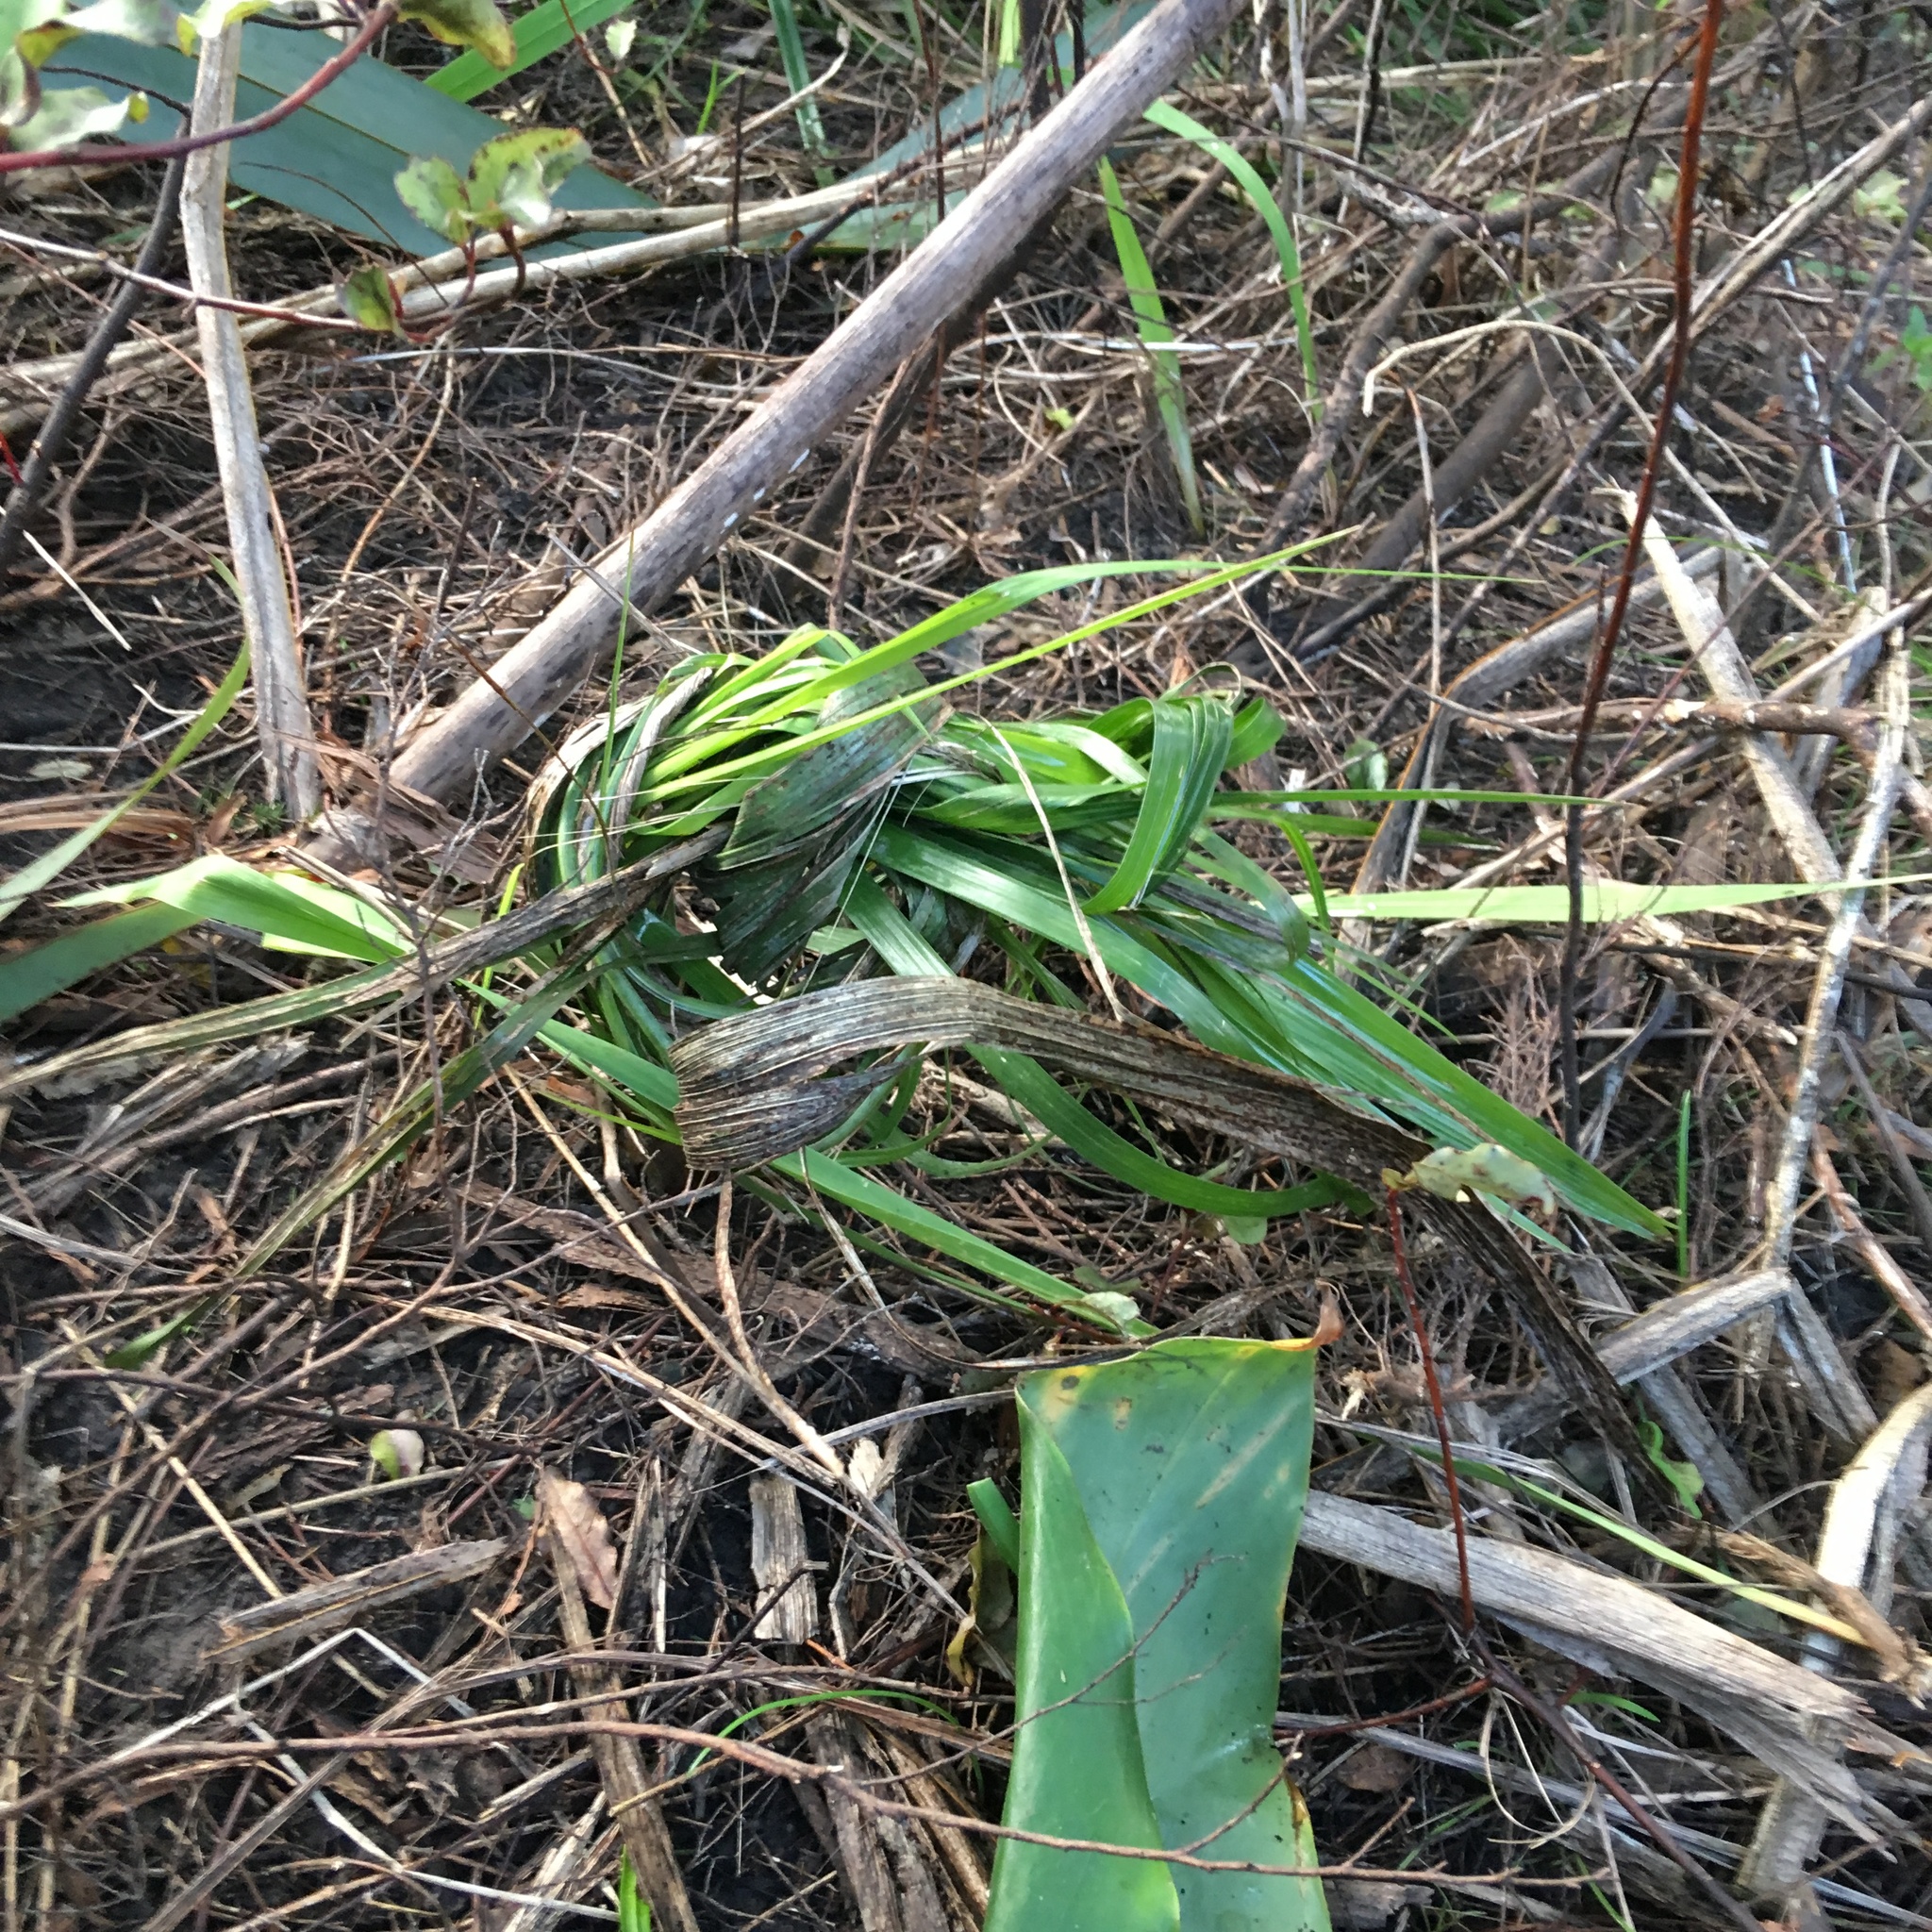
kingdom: Plantae
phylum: Tracheophyta
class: Liliopsida
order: Arecales
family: Arecaceae
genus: Phoenix
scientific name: Phoenix canariensis
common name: Canary island date palm
